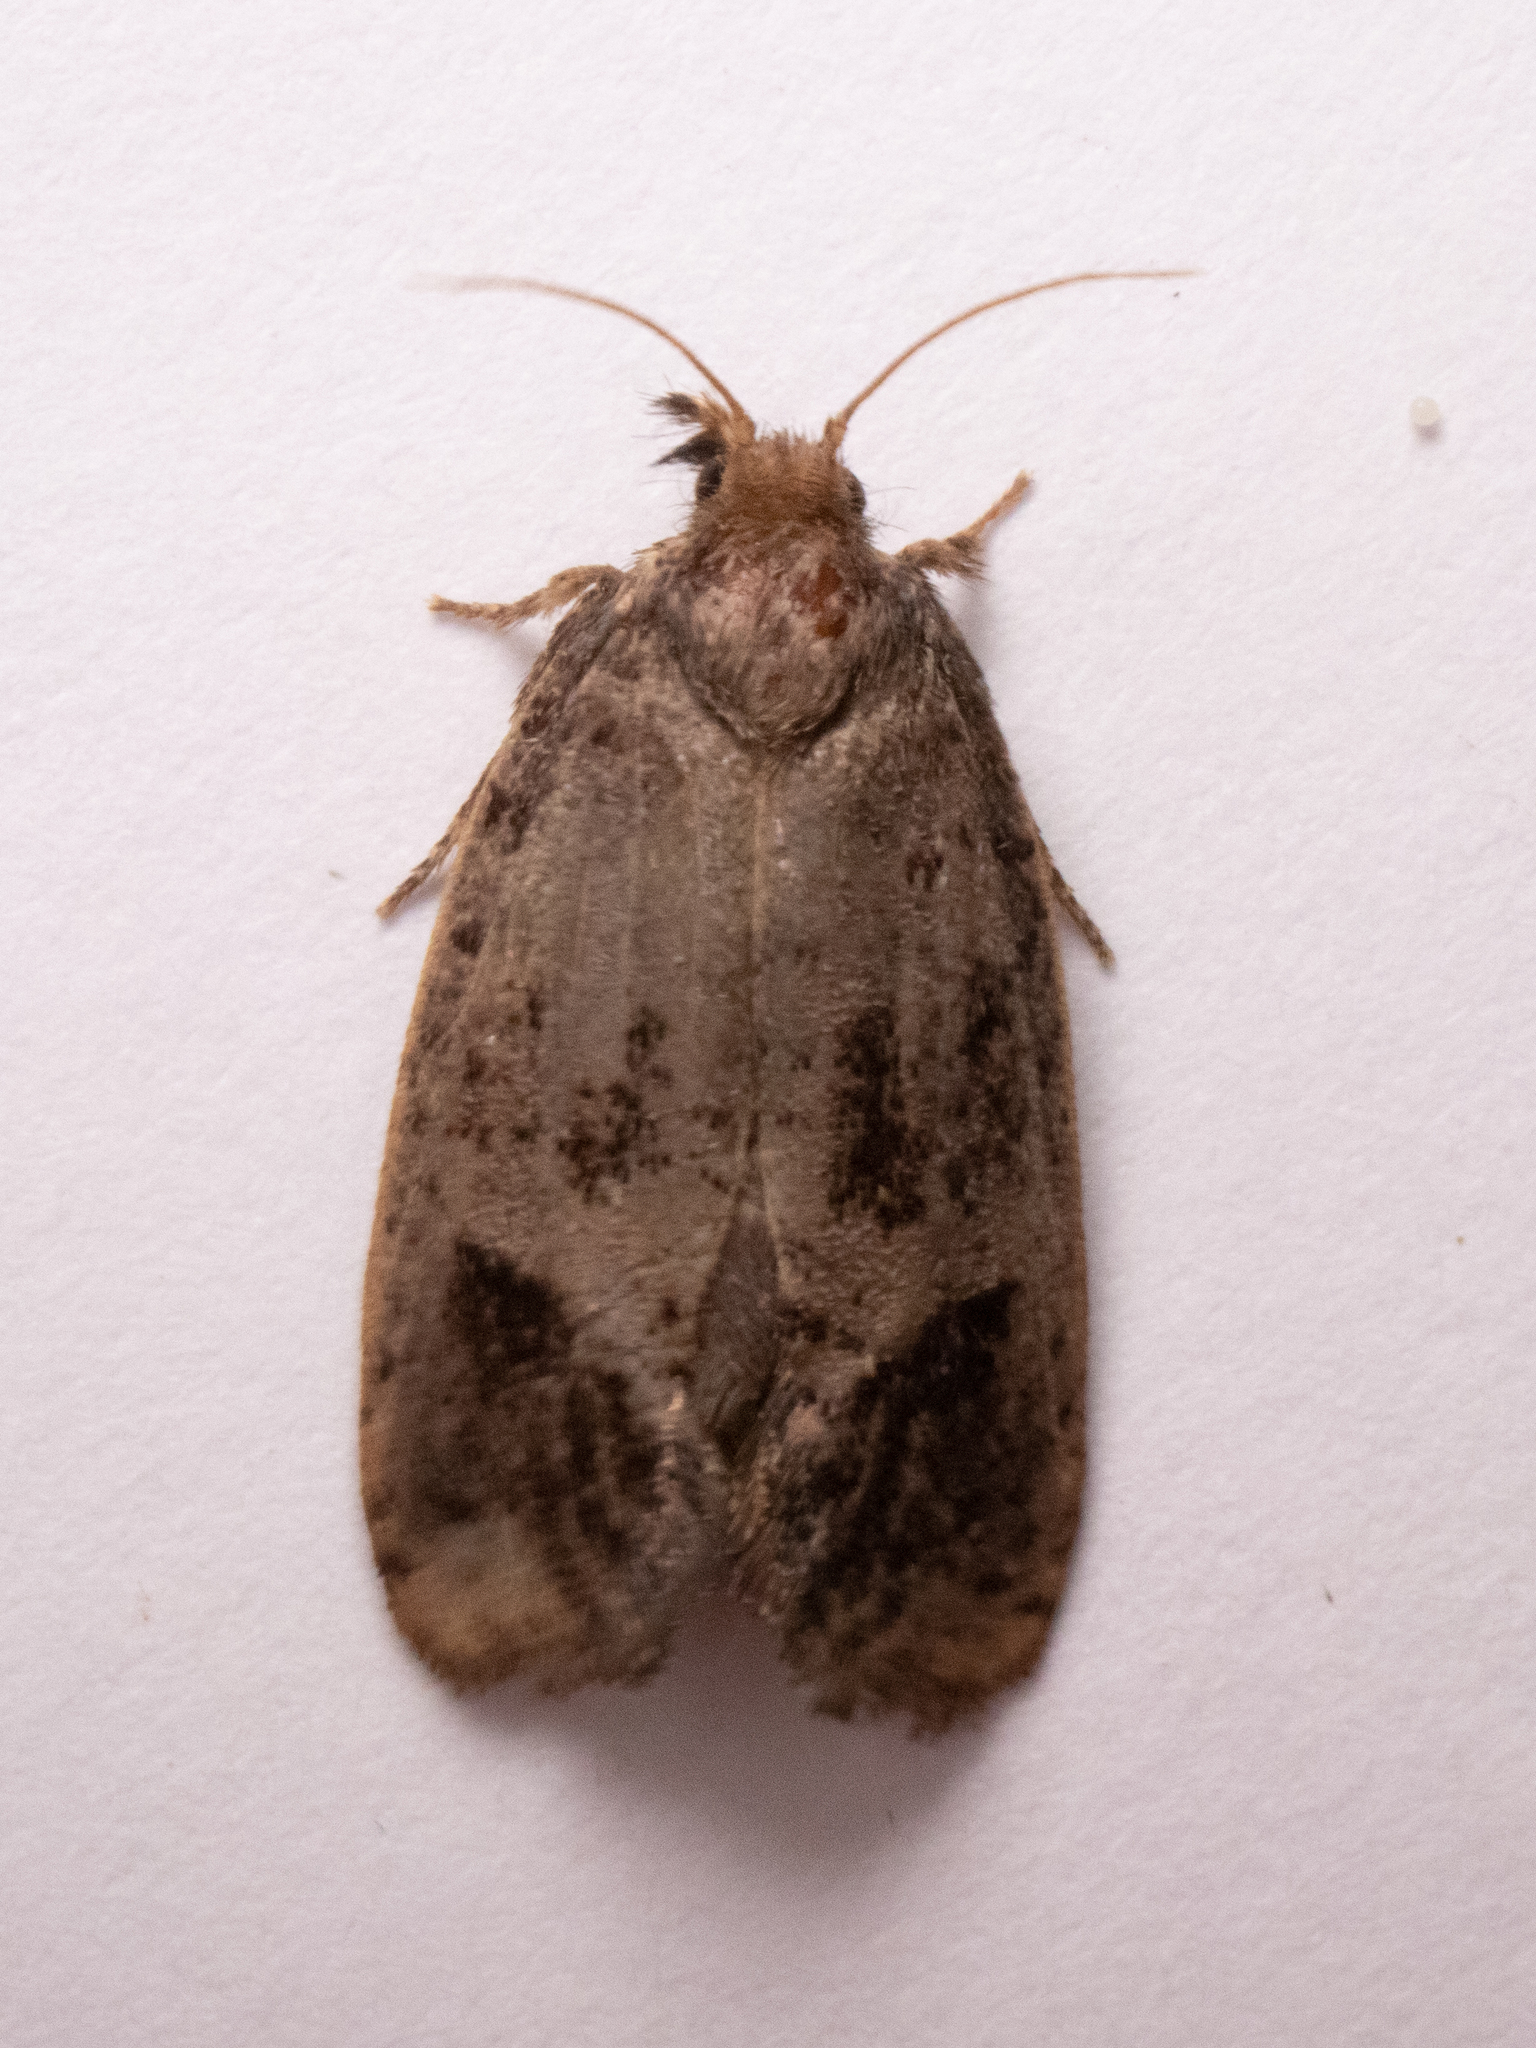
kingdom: Animalia
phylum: Arthropoda
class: Insecta
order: Lepidoptera
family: Tineidae
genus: Acrolophus
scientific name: Acrolophus texanella
